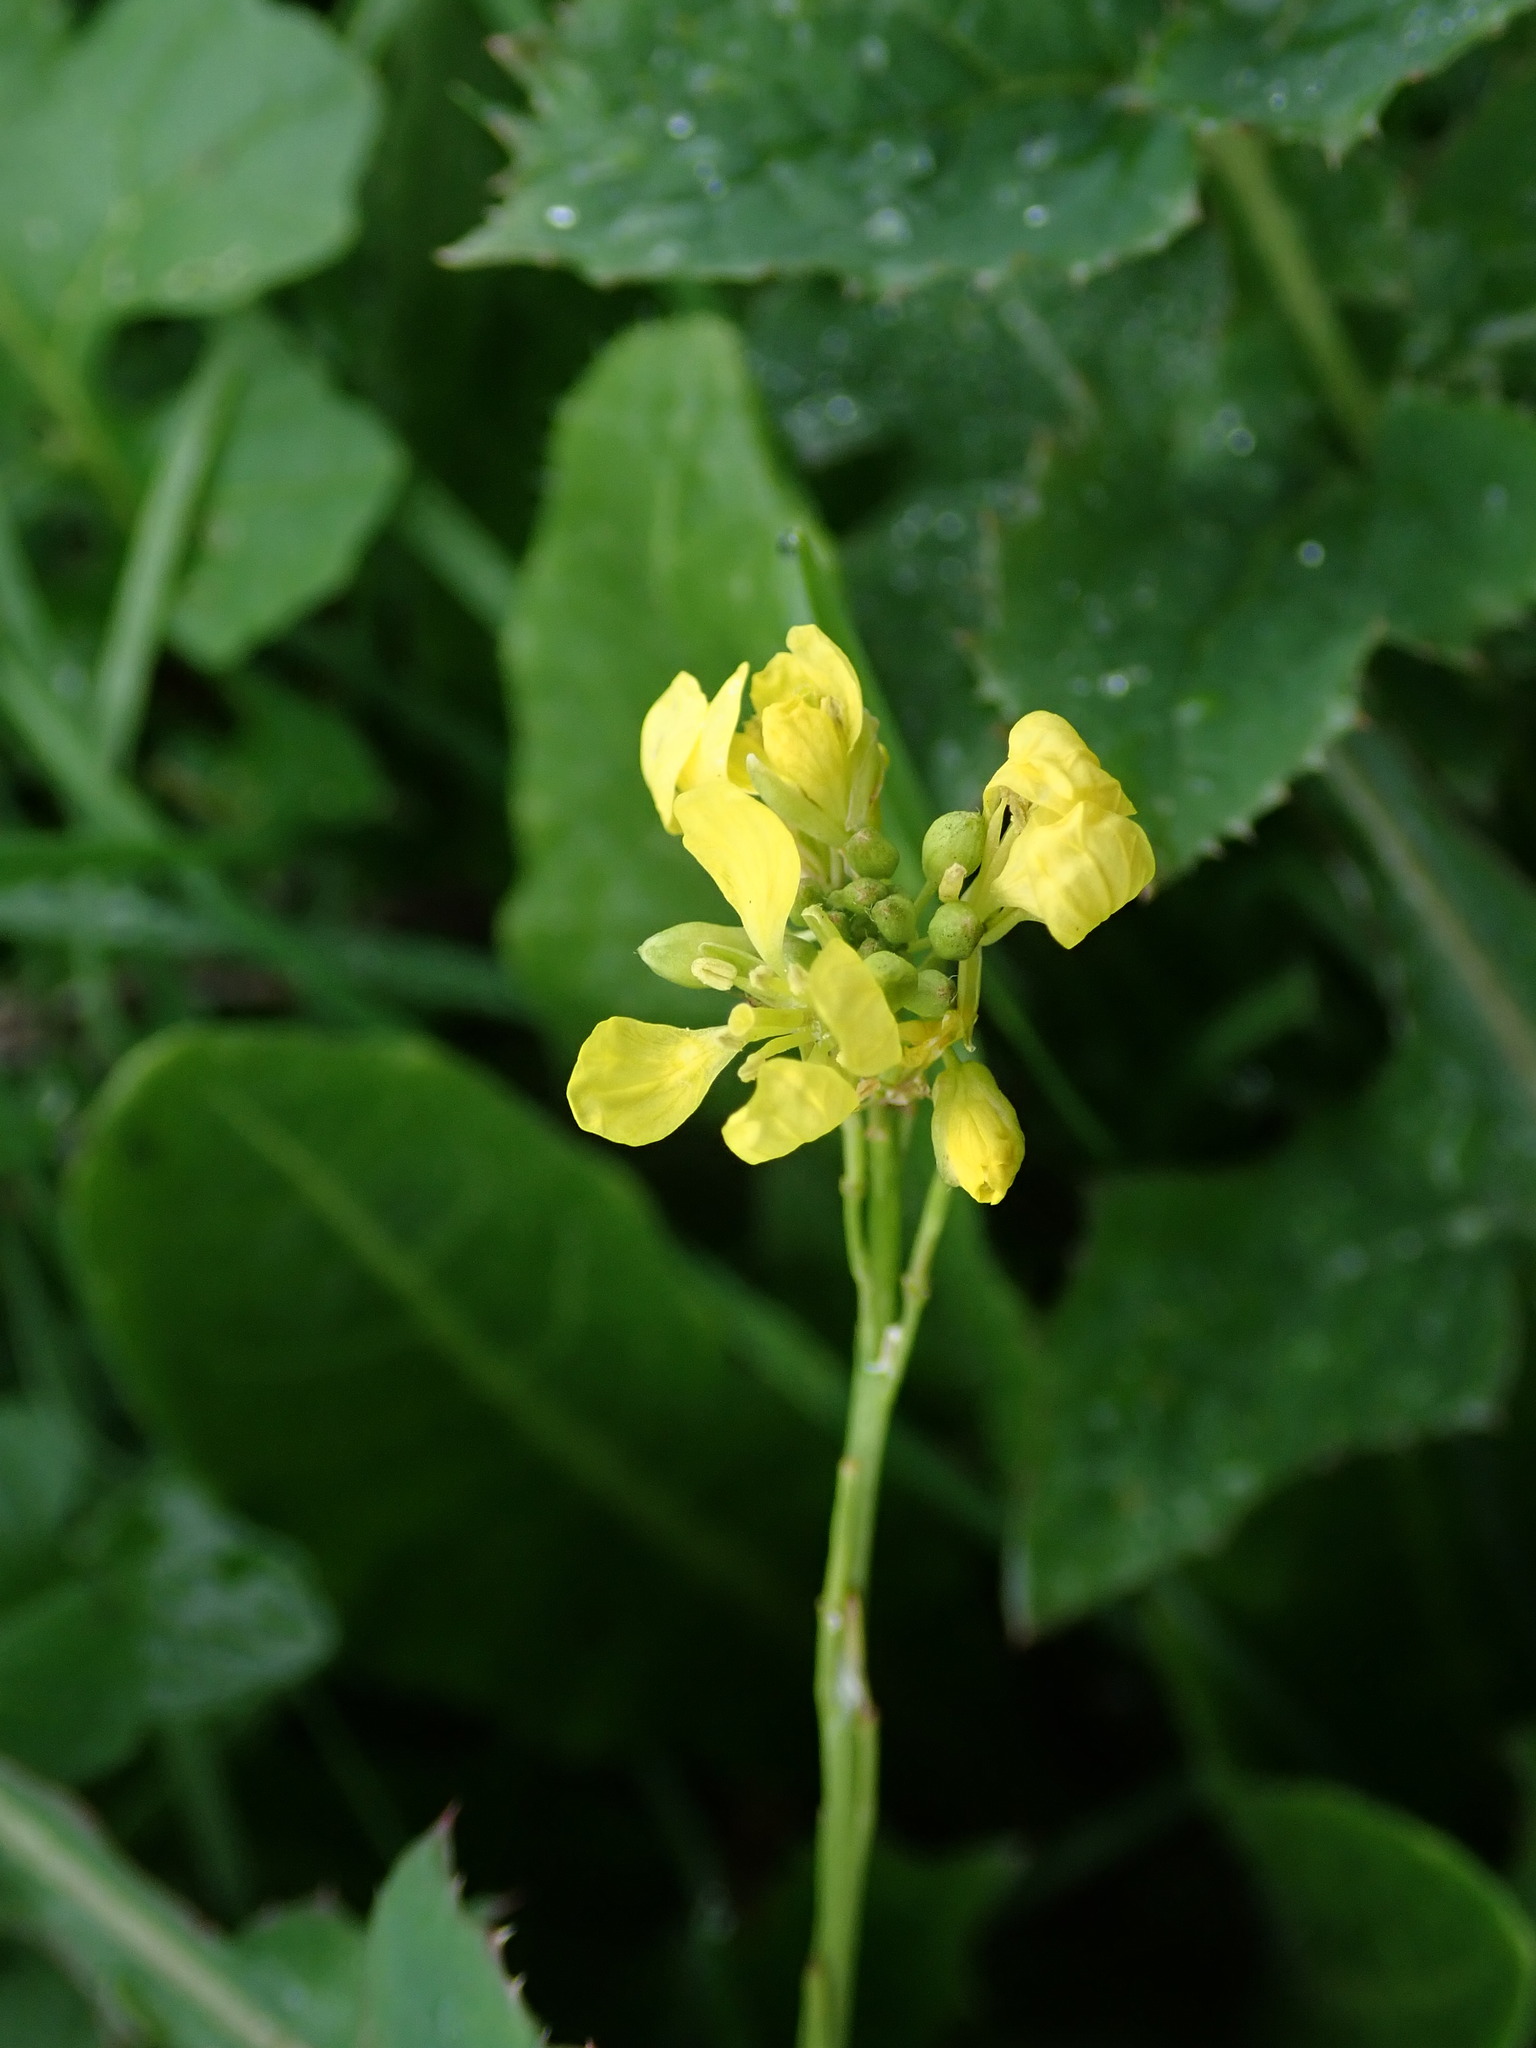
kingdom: Plantae
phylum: Tracheophyta
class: Magnoliopsida
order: Brassicales
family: Brassicaceae
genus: Hirschfeldia
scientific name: Hirschfeldia incana
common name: Hoary mustard
